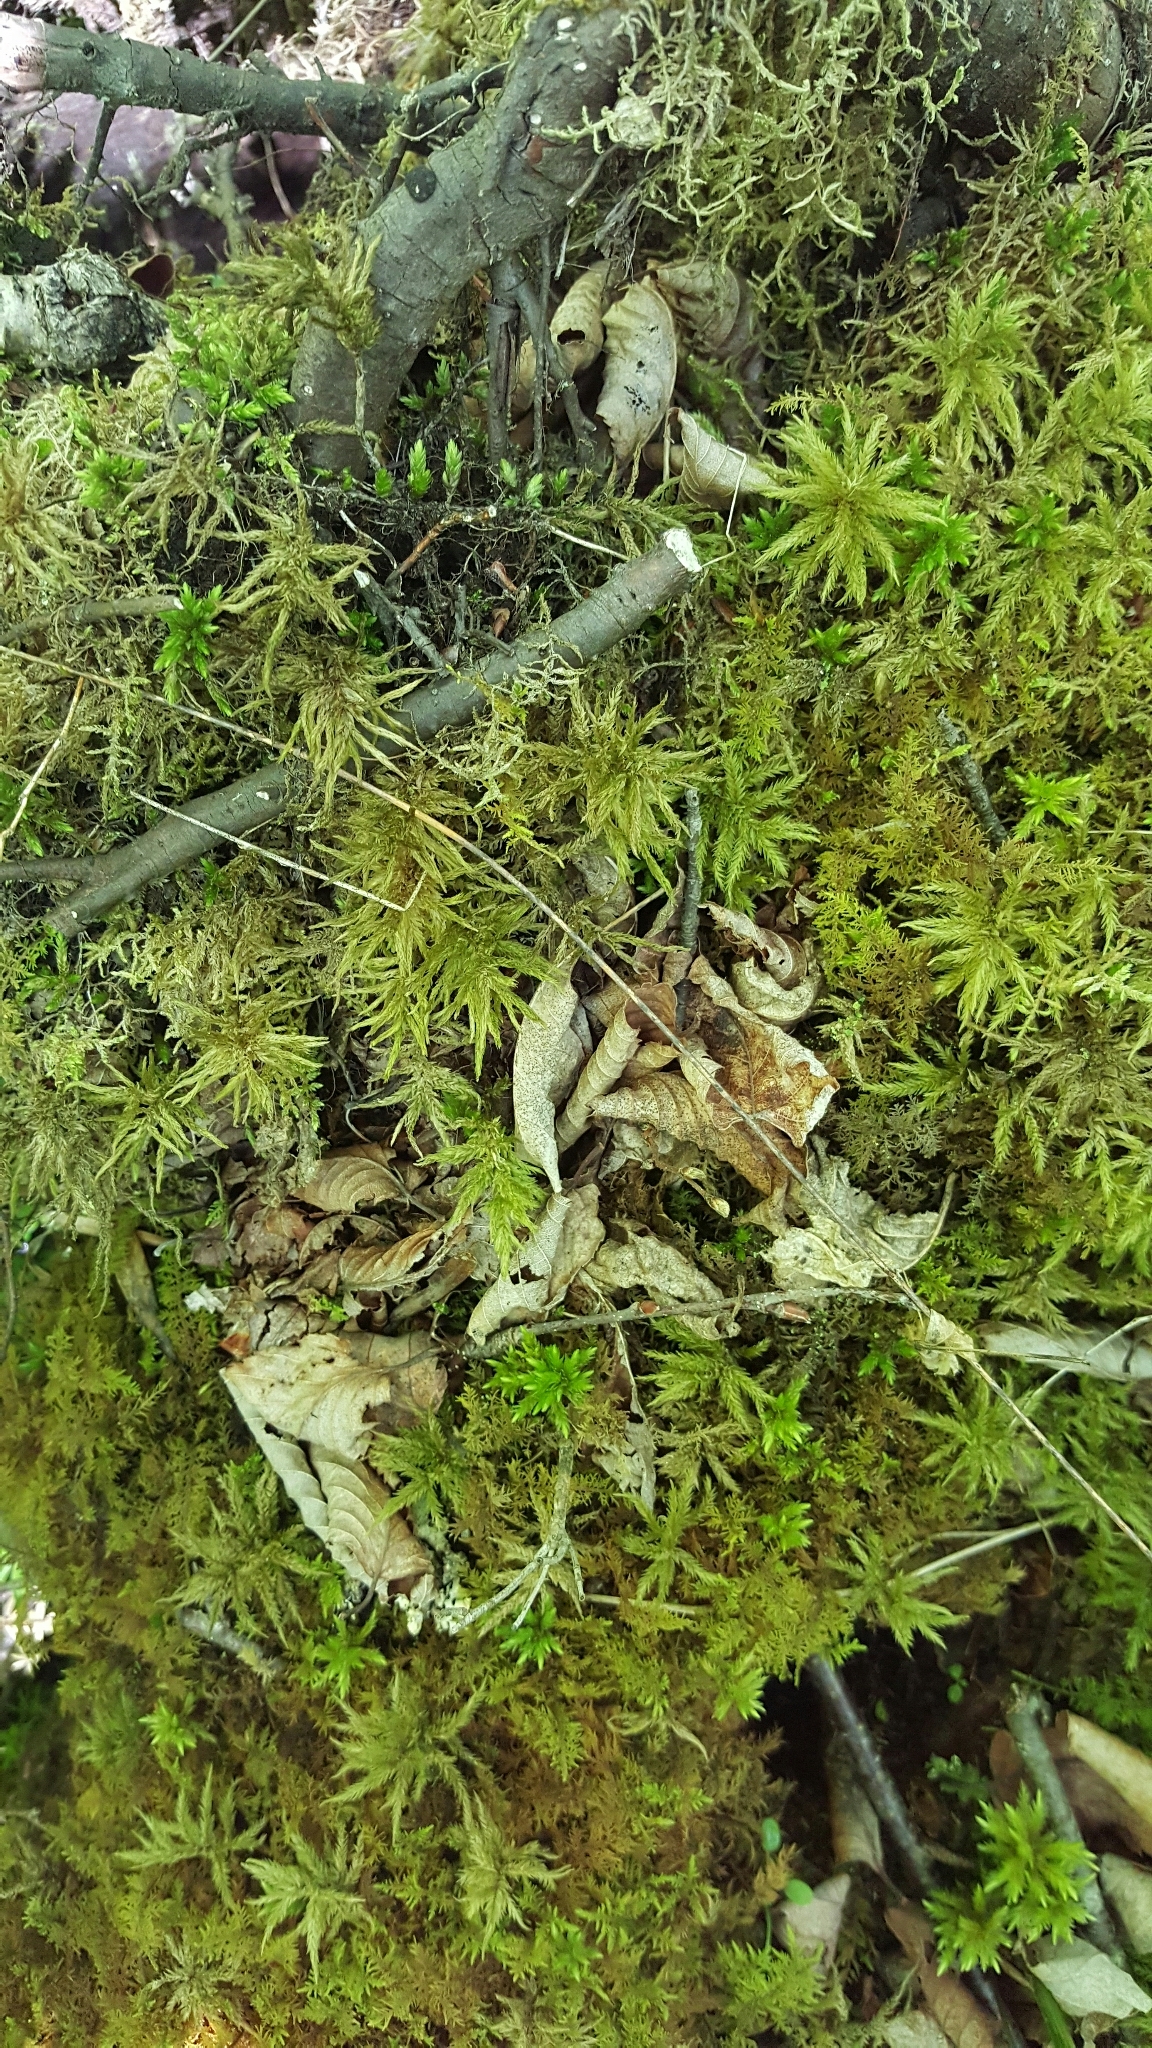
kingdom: Plantae
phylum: Bryophyta
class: Bryopsida
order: Hypnales
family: Climaciaceae
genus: Climacium
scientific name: Climacium dendroides
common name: Northern tree moss
